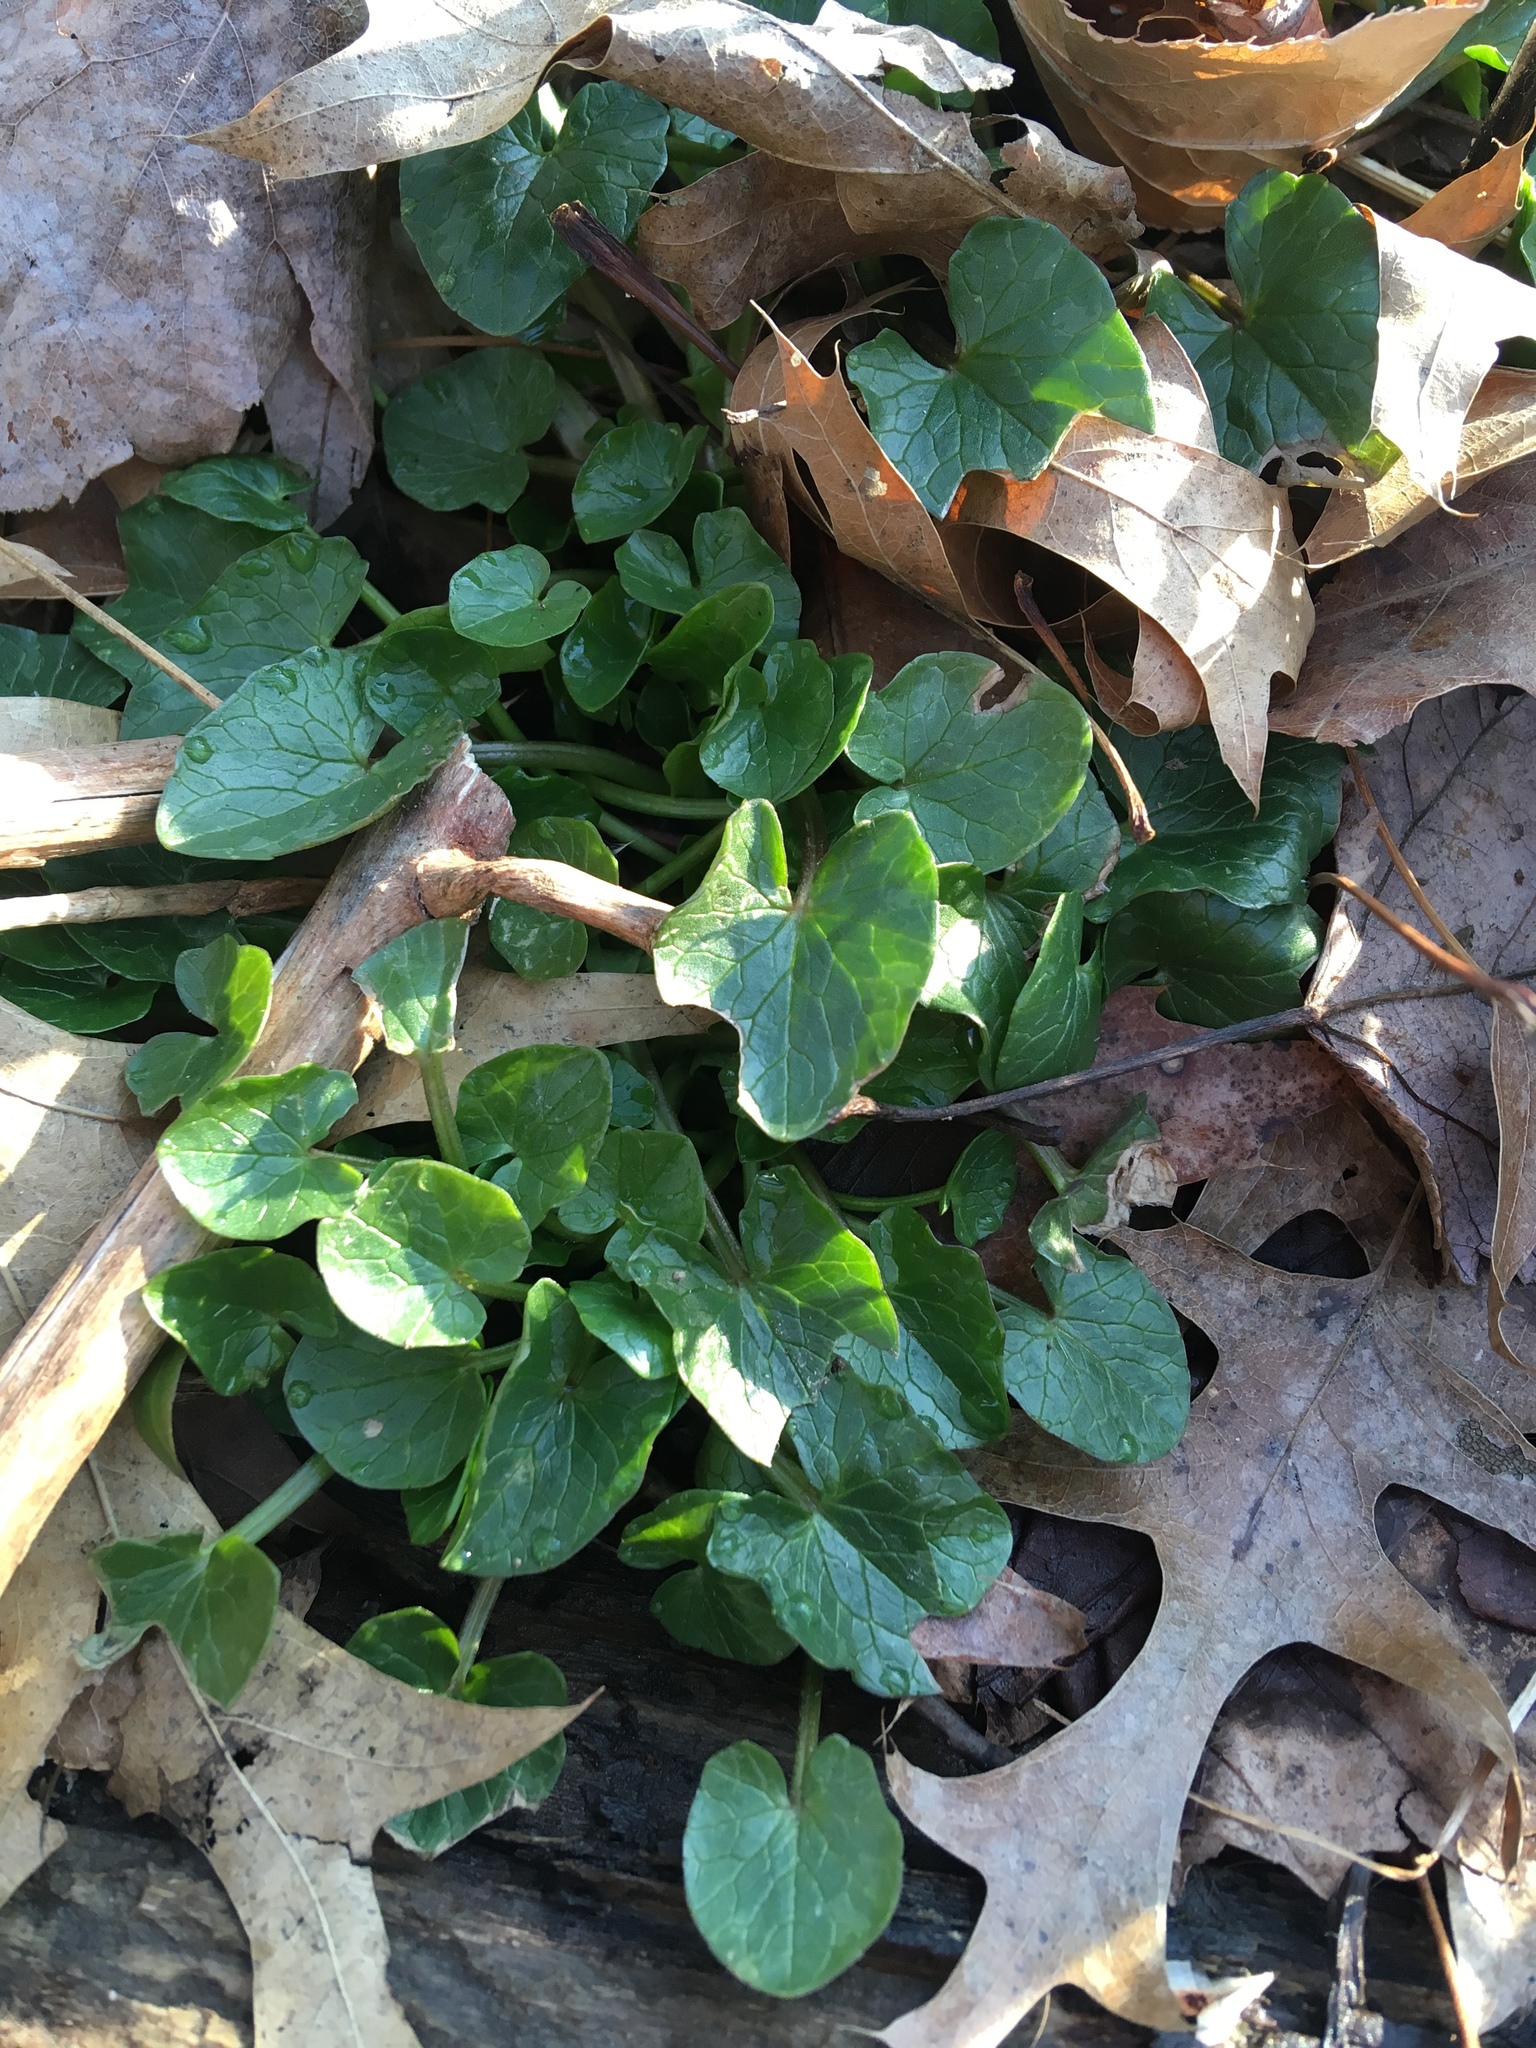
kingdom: Plantae
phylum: Tracheophyta
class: Magnoliopsida
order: Ranunculales
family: Ranunculaceae
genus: Ficaria
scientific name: Ficaria verna
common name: Lesser celandine
